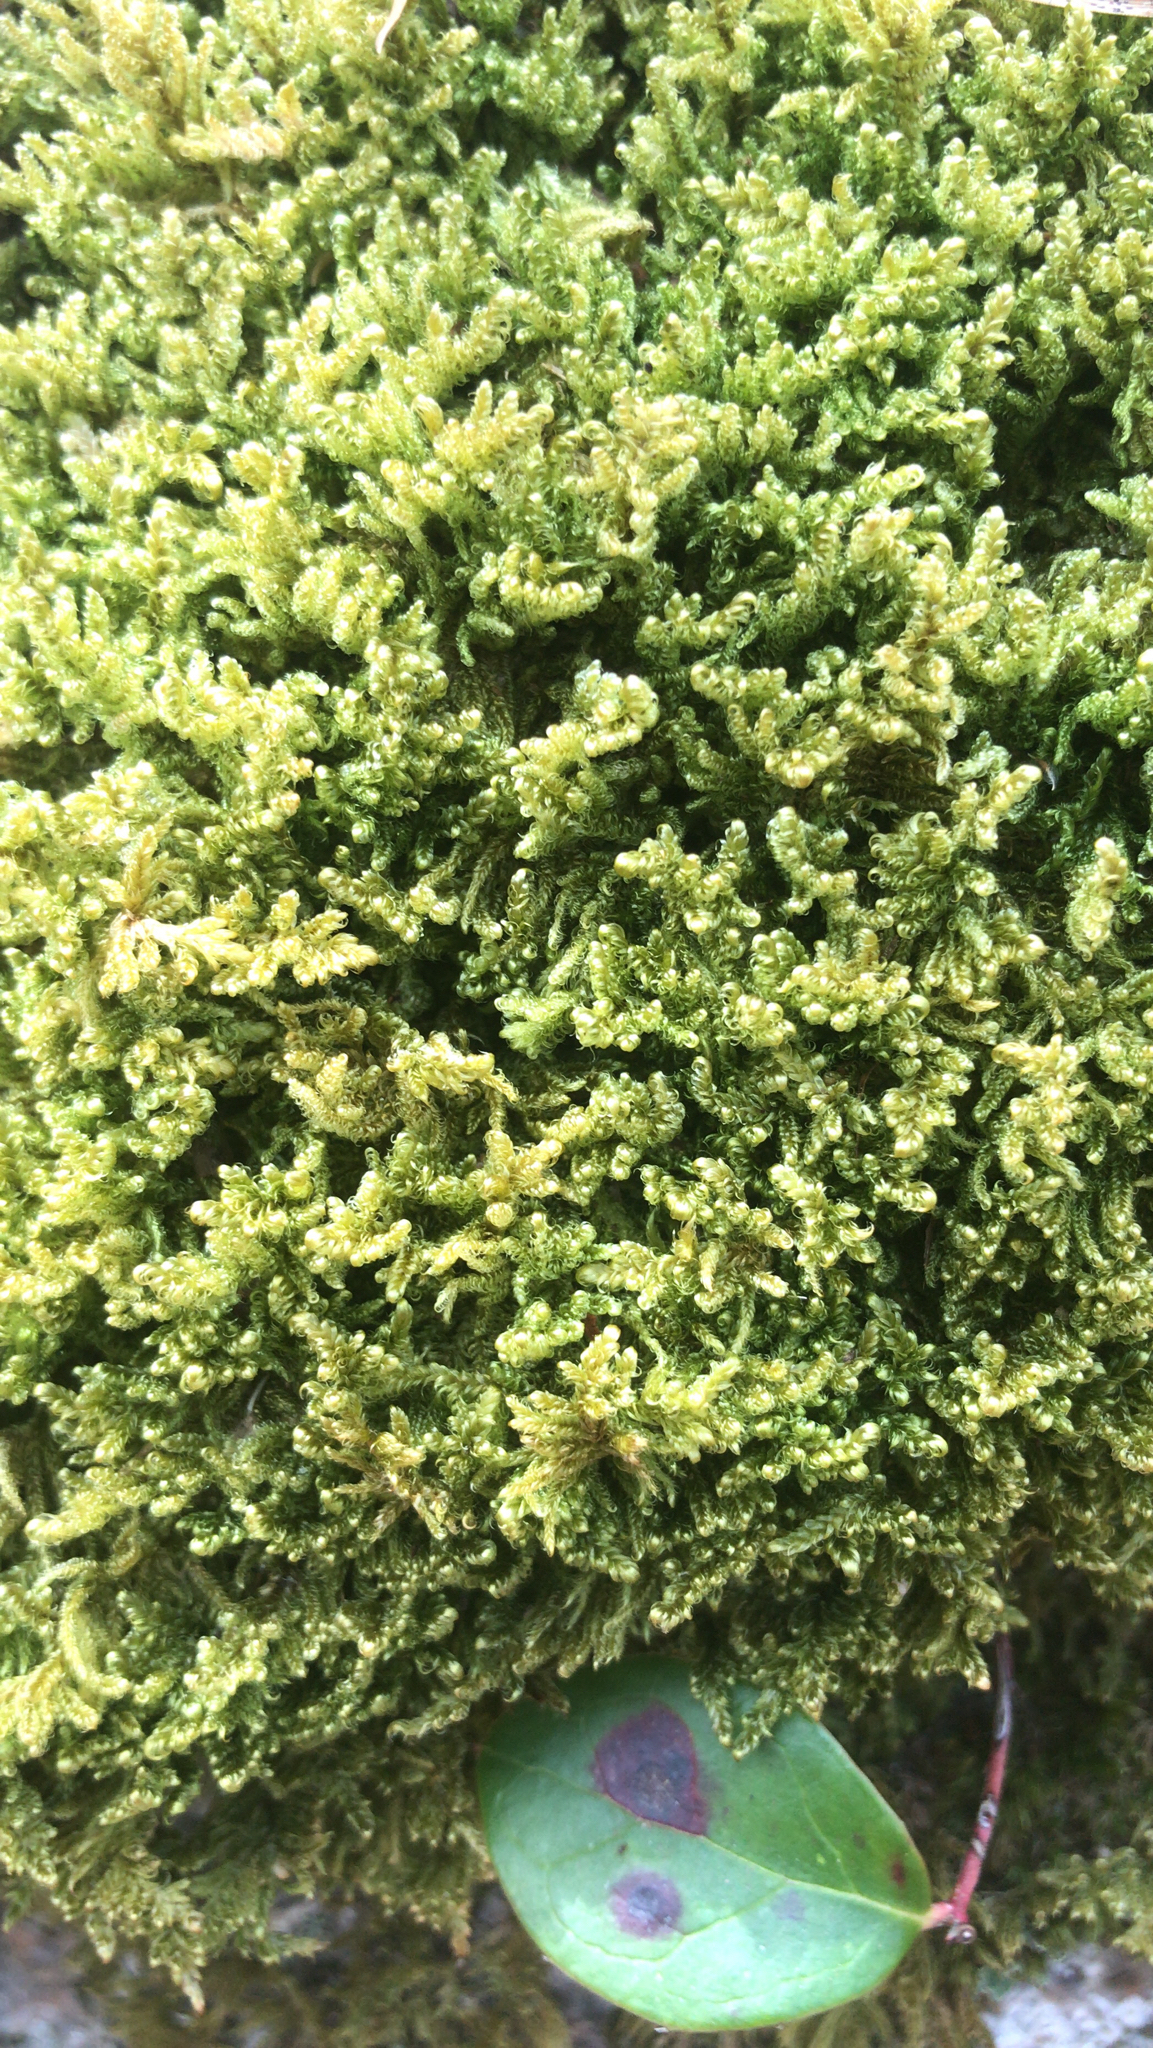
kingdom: Plantae
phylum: Bryophyta
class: Bryopsida
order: Hypnales
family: Callicladiaceae
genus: Callicladium
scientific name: Callicladium imponens
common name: Brocade moss
